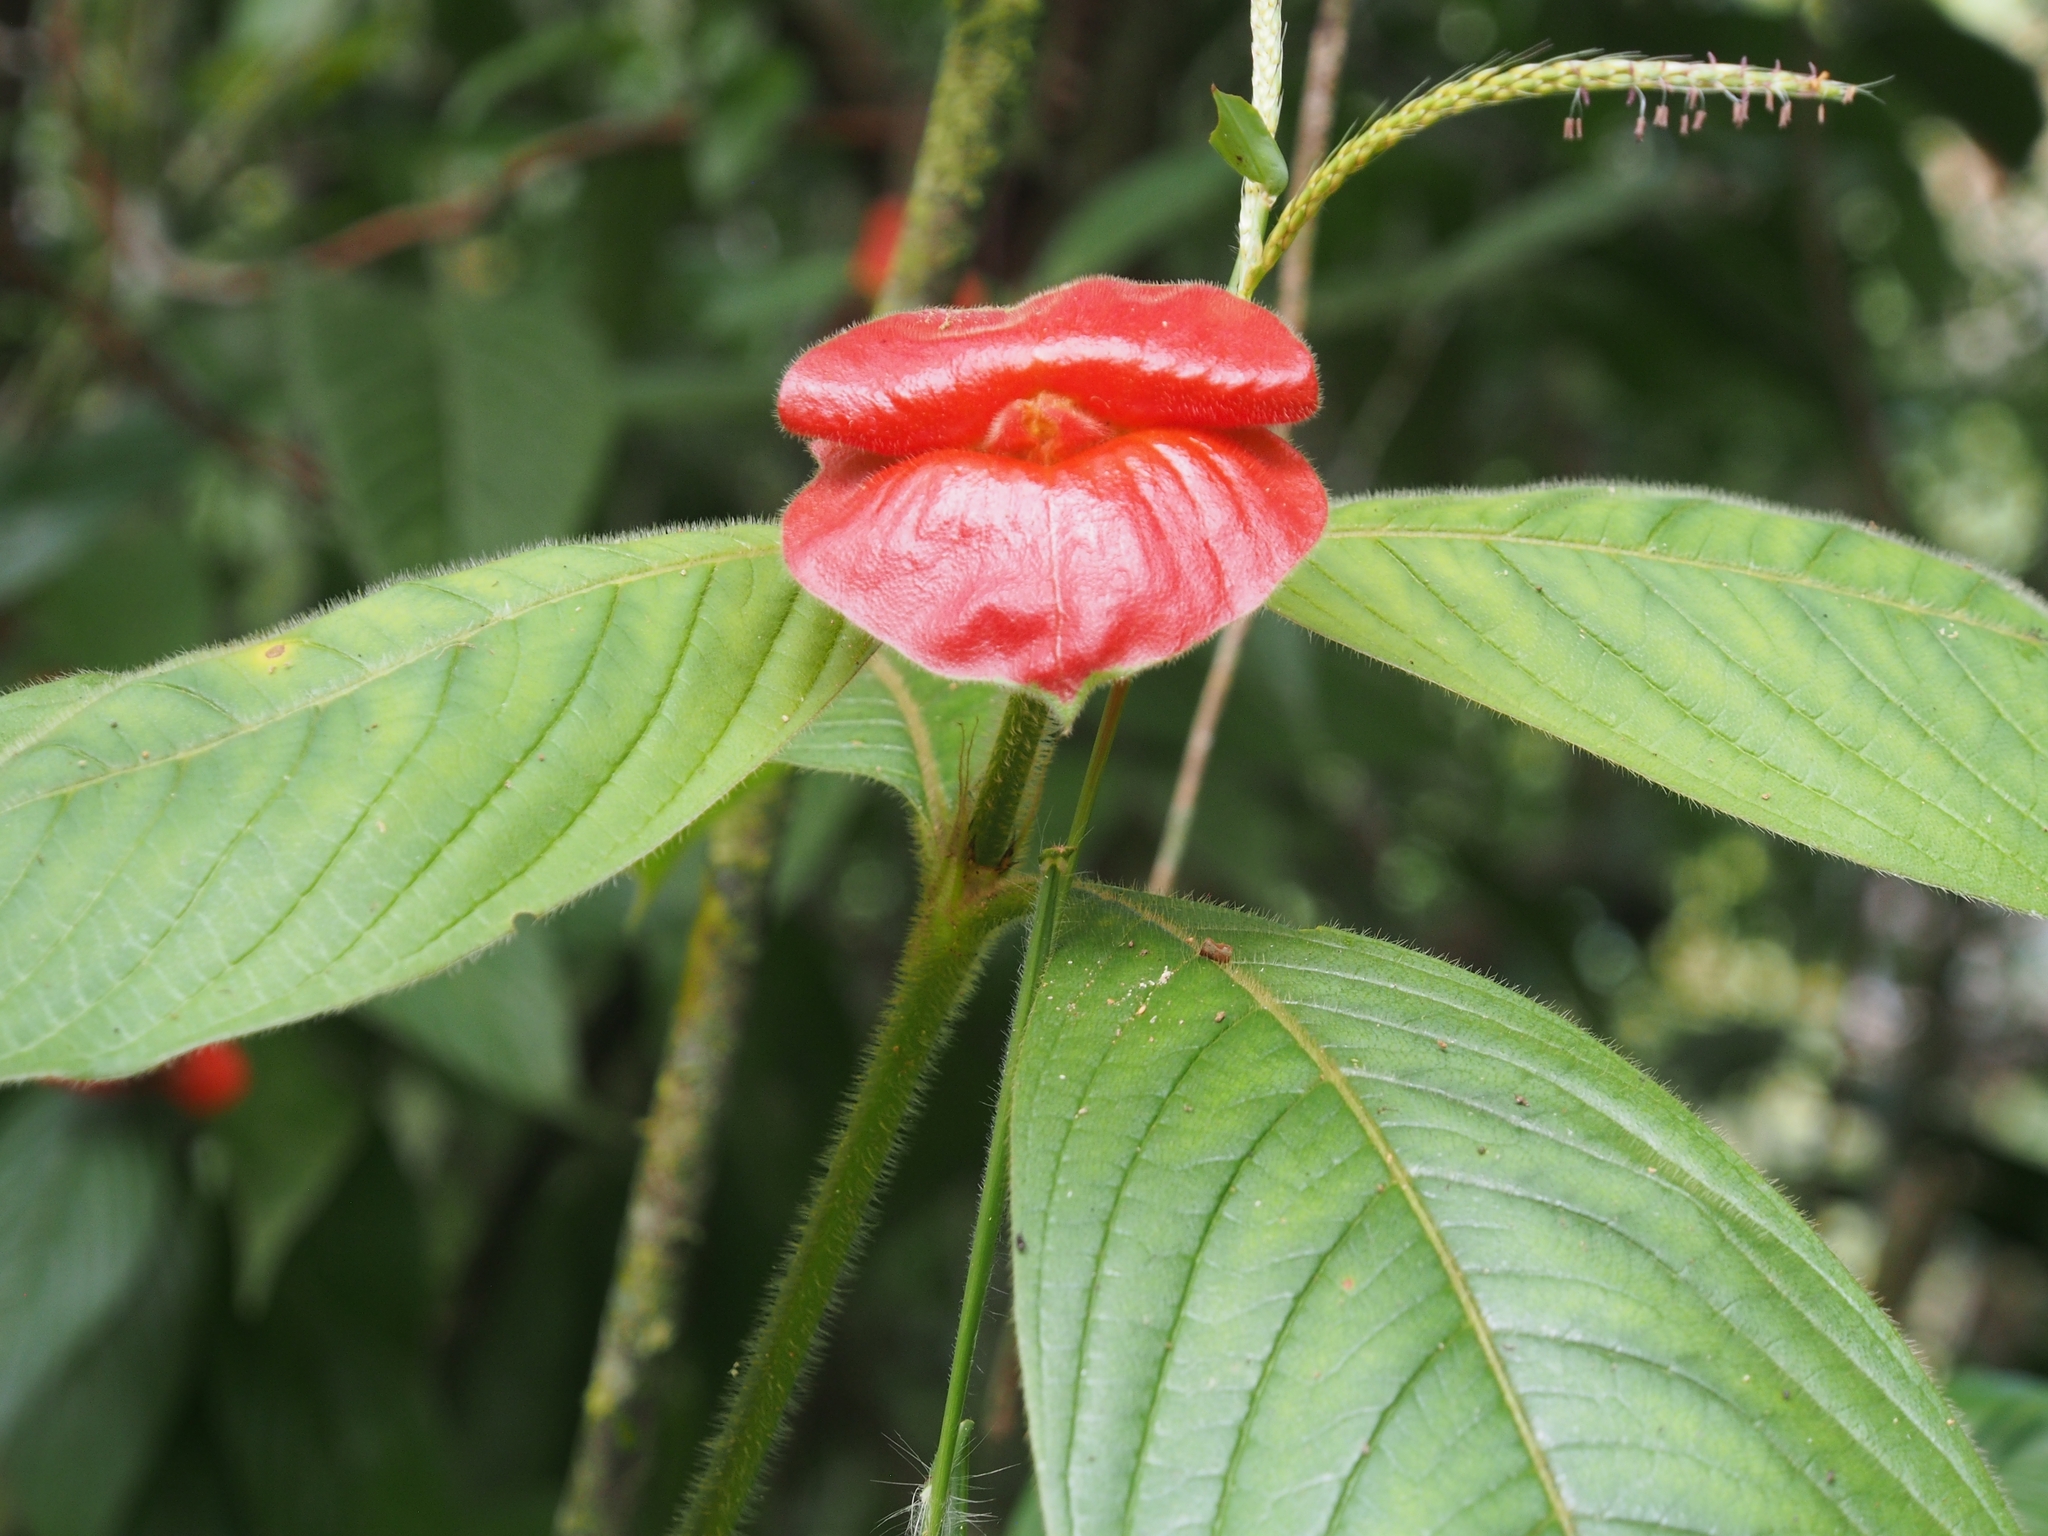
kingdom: Plantae
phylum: Tracheophyta
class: Magnoliopsida
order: Gentianales
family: Rubiaceae
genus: Palicourea
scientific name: Palicourea tomentosa
